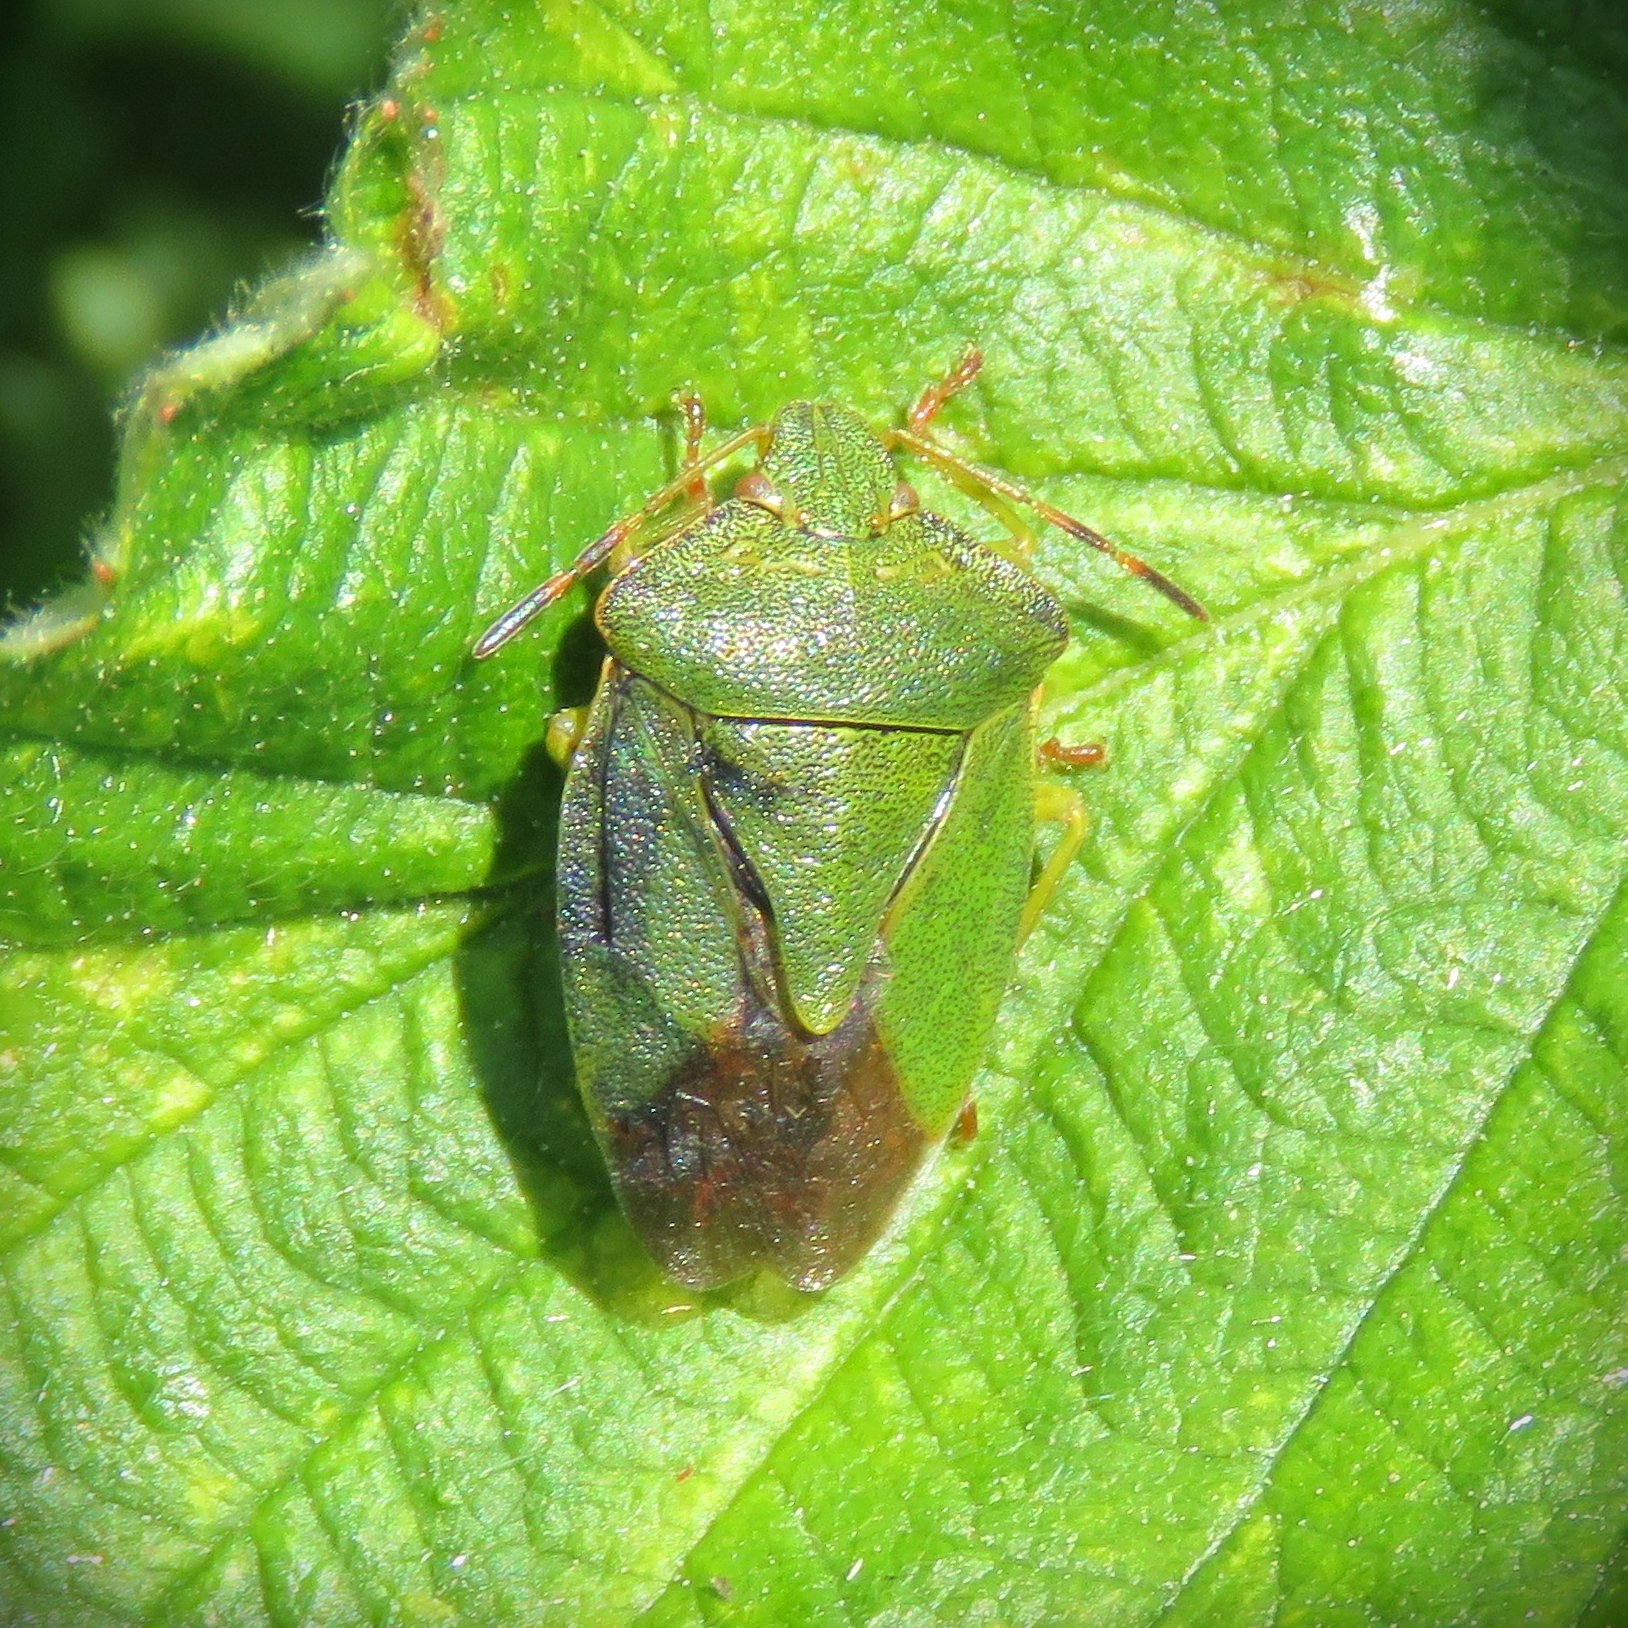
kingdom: Animalia
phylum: Arthropoda
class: Insecta
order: Hemiptera
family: Pentatomidae
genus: Palomena
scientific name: Palomena prasina
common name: Green shieldbug
